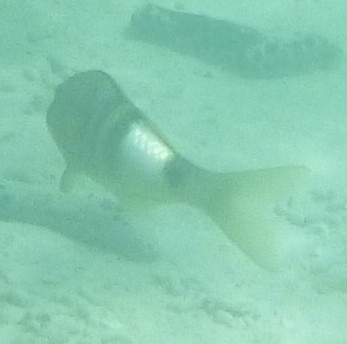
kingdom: Animalia
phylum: Chordata
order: Perciformes
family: Mullidae
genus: Parupeneus
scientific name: Parupeneus multifasciatus
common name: Manybar goatfish
